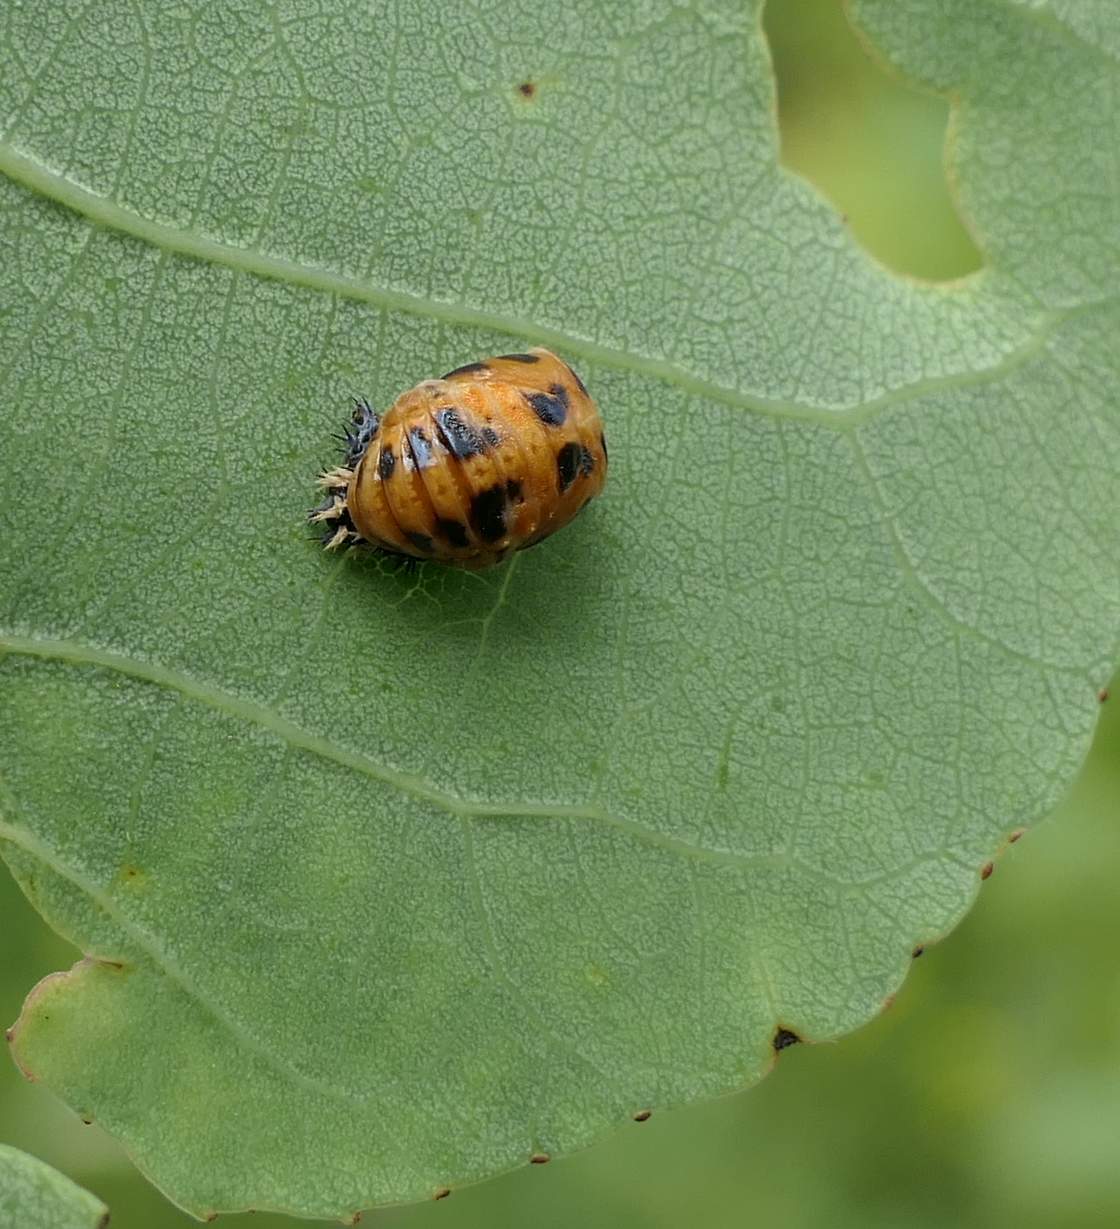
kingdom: Animalia
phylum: Arthropoda
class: Insecta
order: Coleoptera
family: Coccinellidae
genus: Harmonia
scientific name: Harmonia axyridis
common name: Harlequin ladybird
